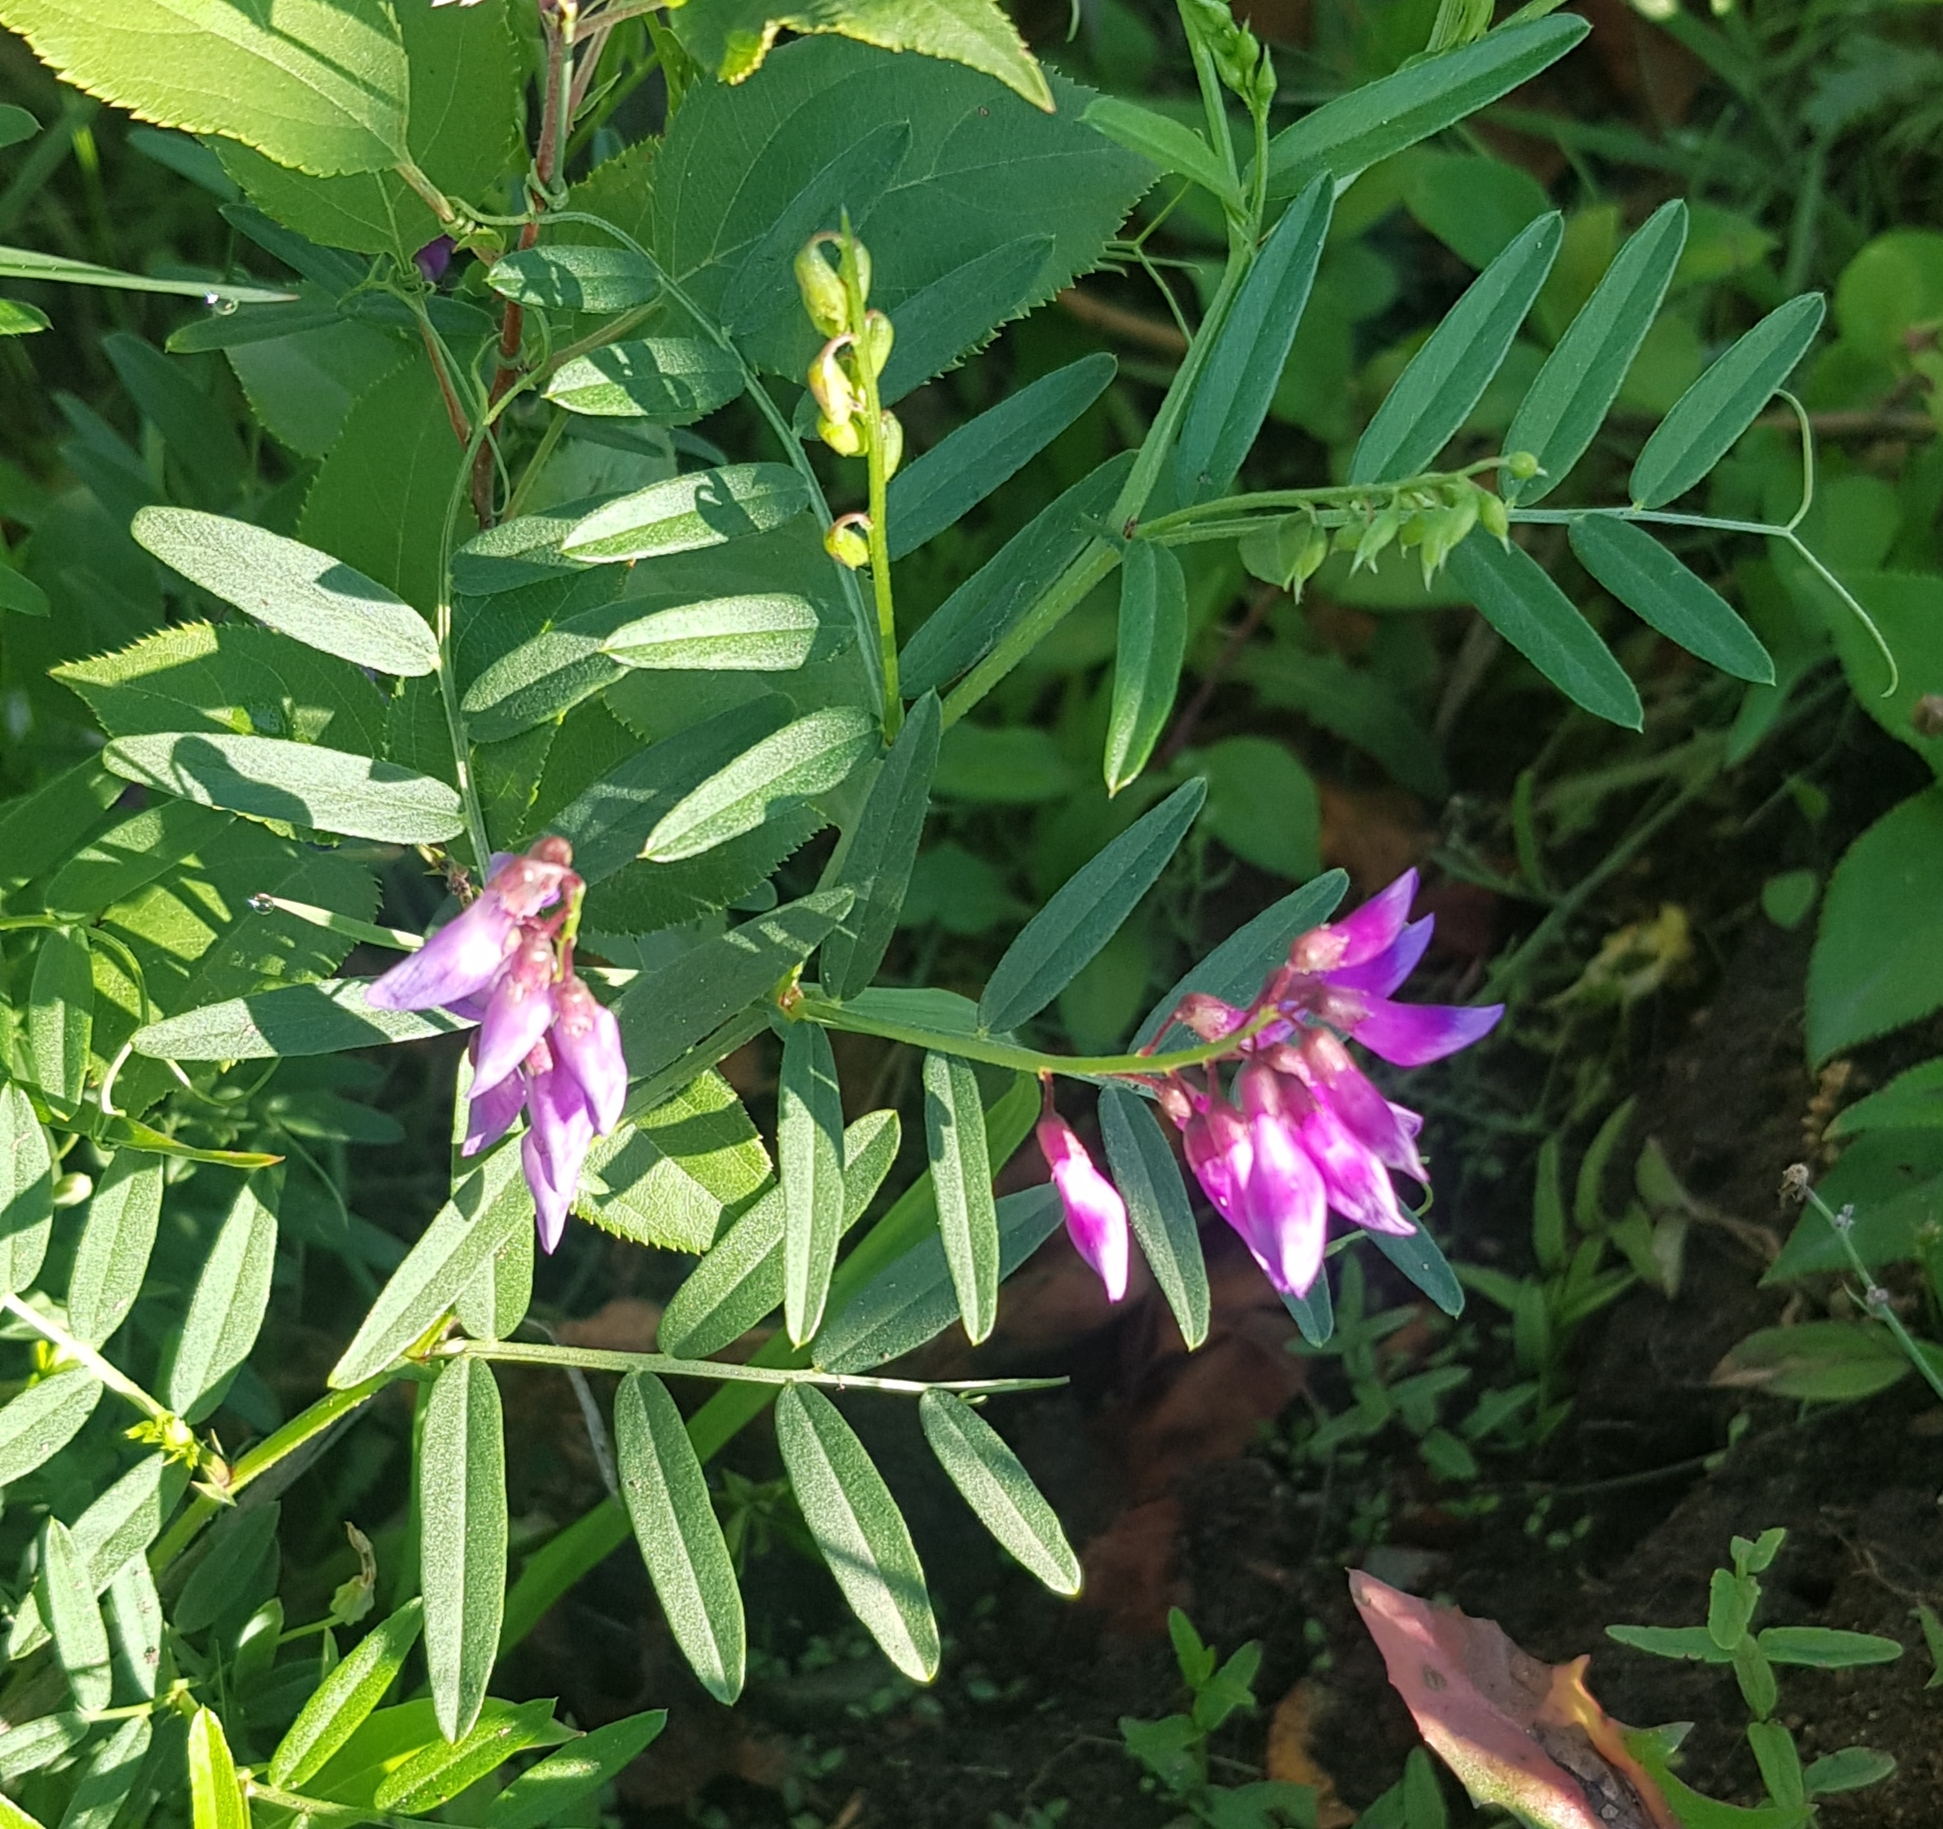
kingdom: Plantae
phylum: Tracheophyta
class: Magnoliopsida
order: Fabales
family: Fabaceae
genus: Vicia
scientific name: Vicia amoena
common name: Cheder ebs
